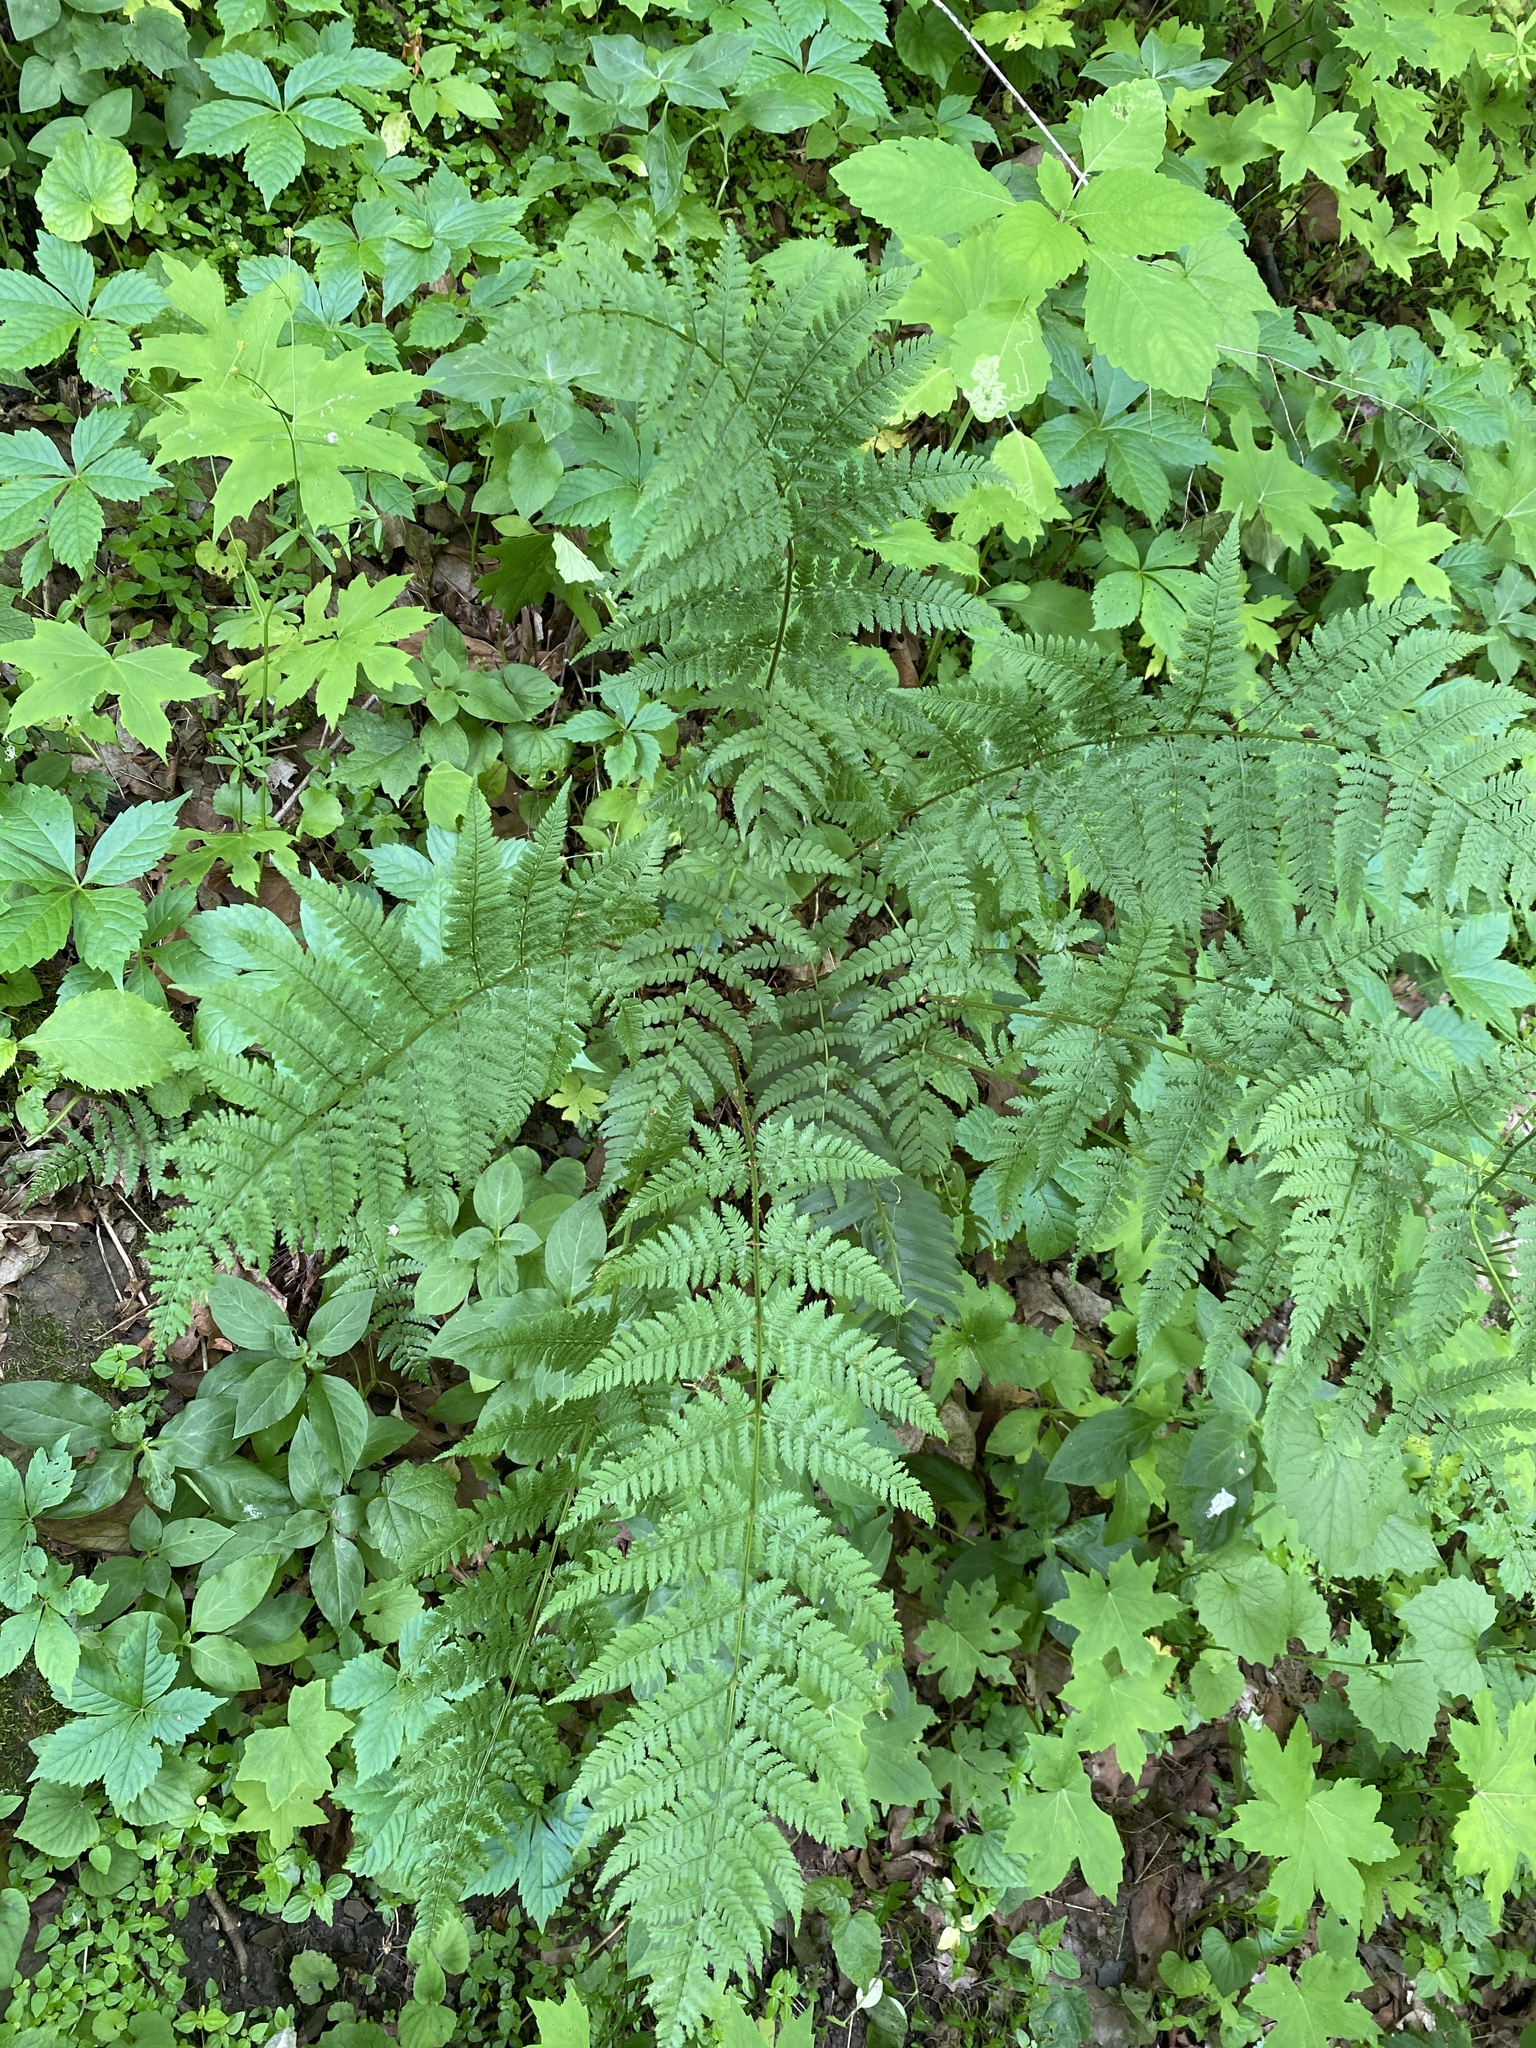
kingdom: Plantae
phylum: Tracheophyta
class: Polypodiopsida
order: Polypodiales
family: Dryopteridaceae
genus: Dryopteris
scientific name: Dryopteris intermedia
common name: Evergreen wood fern
